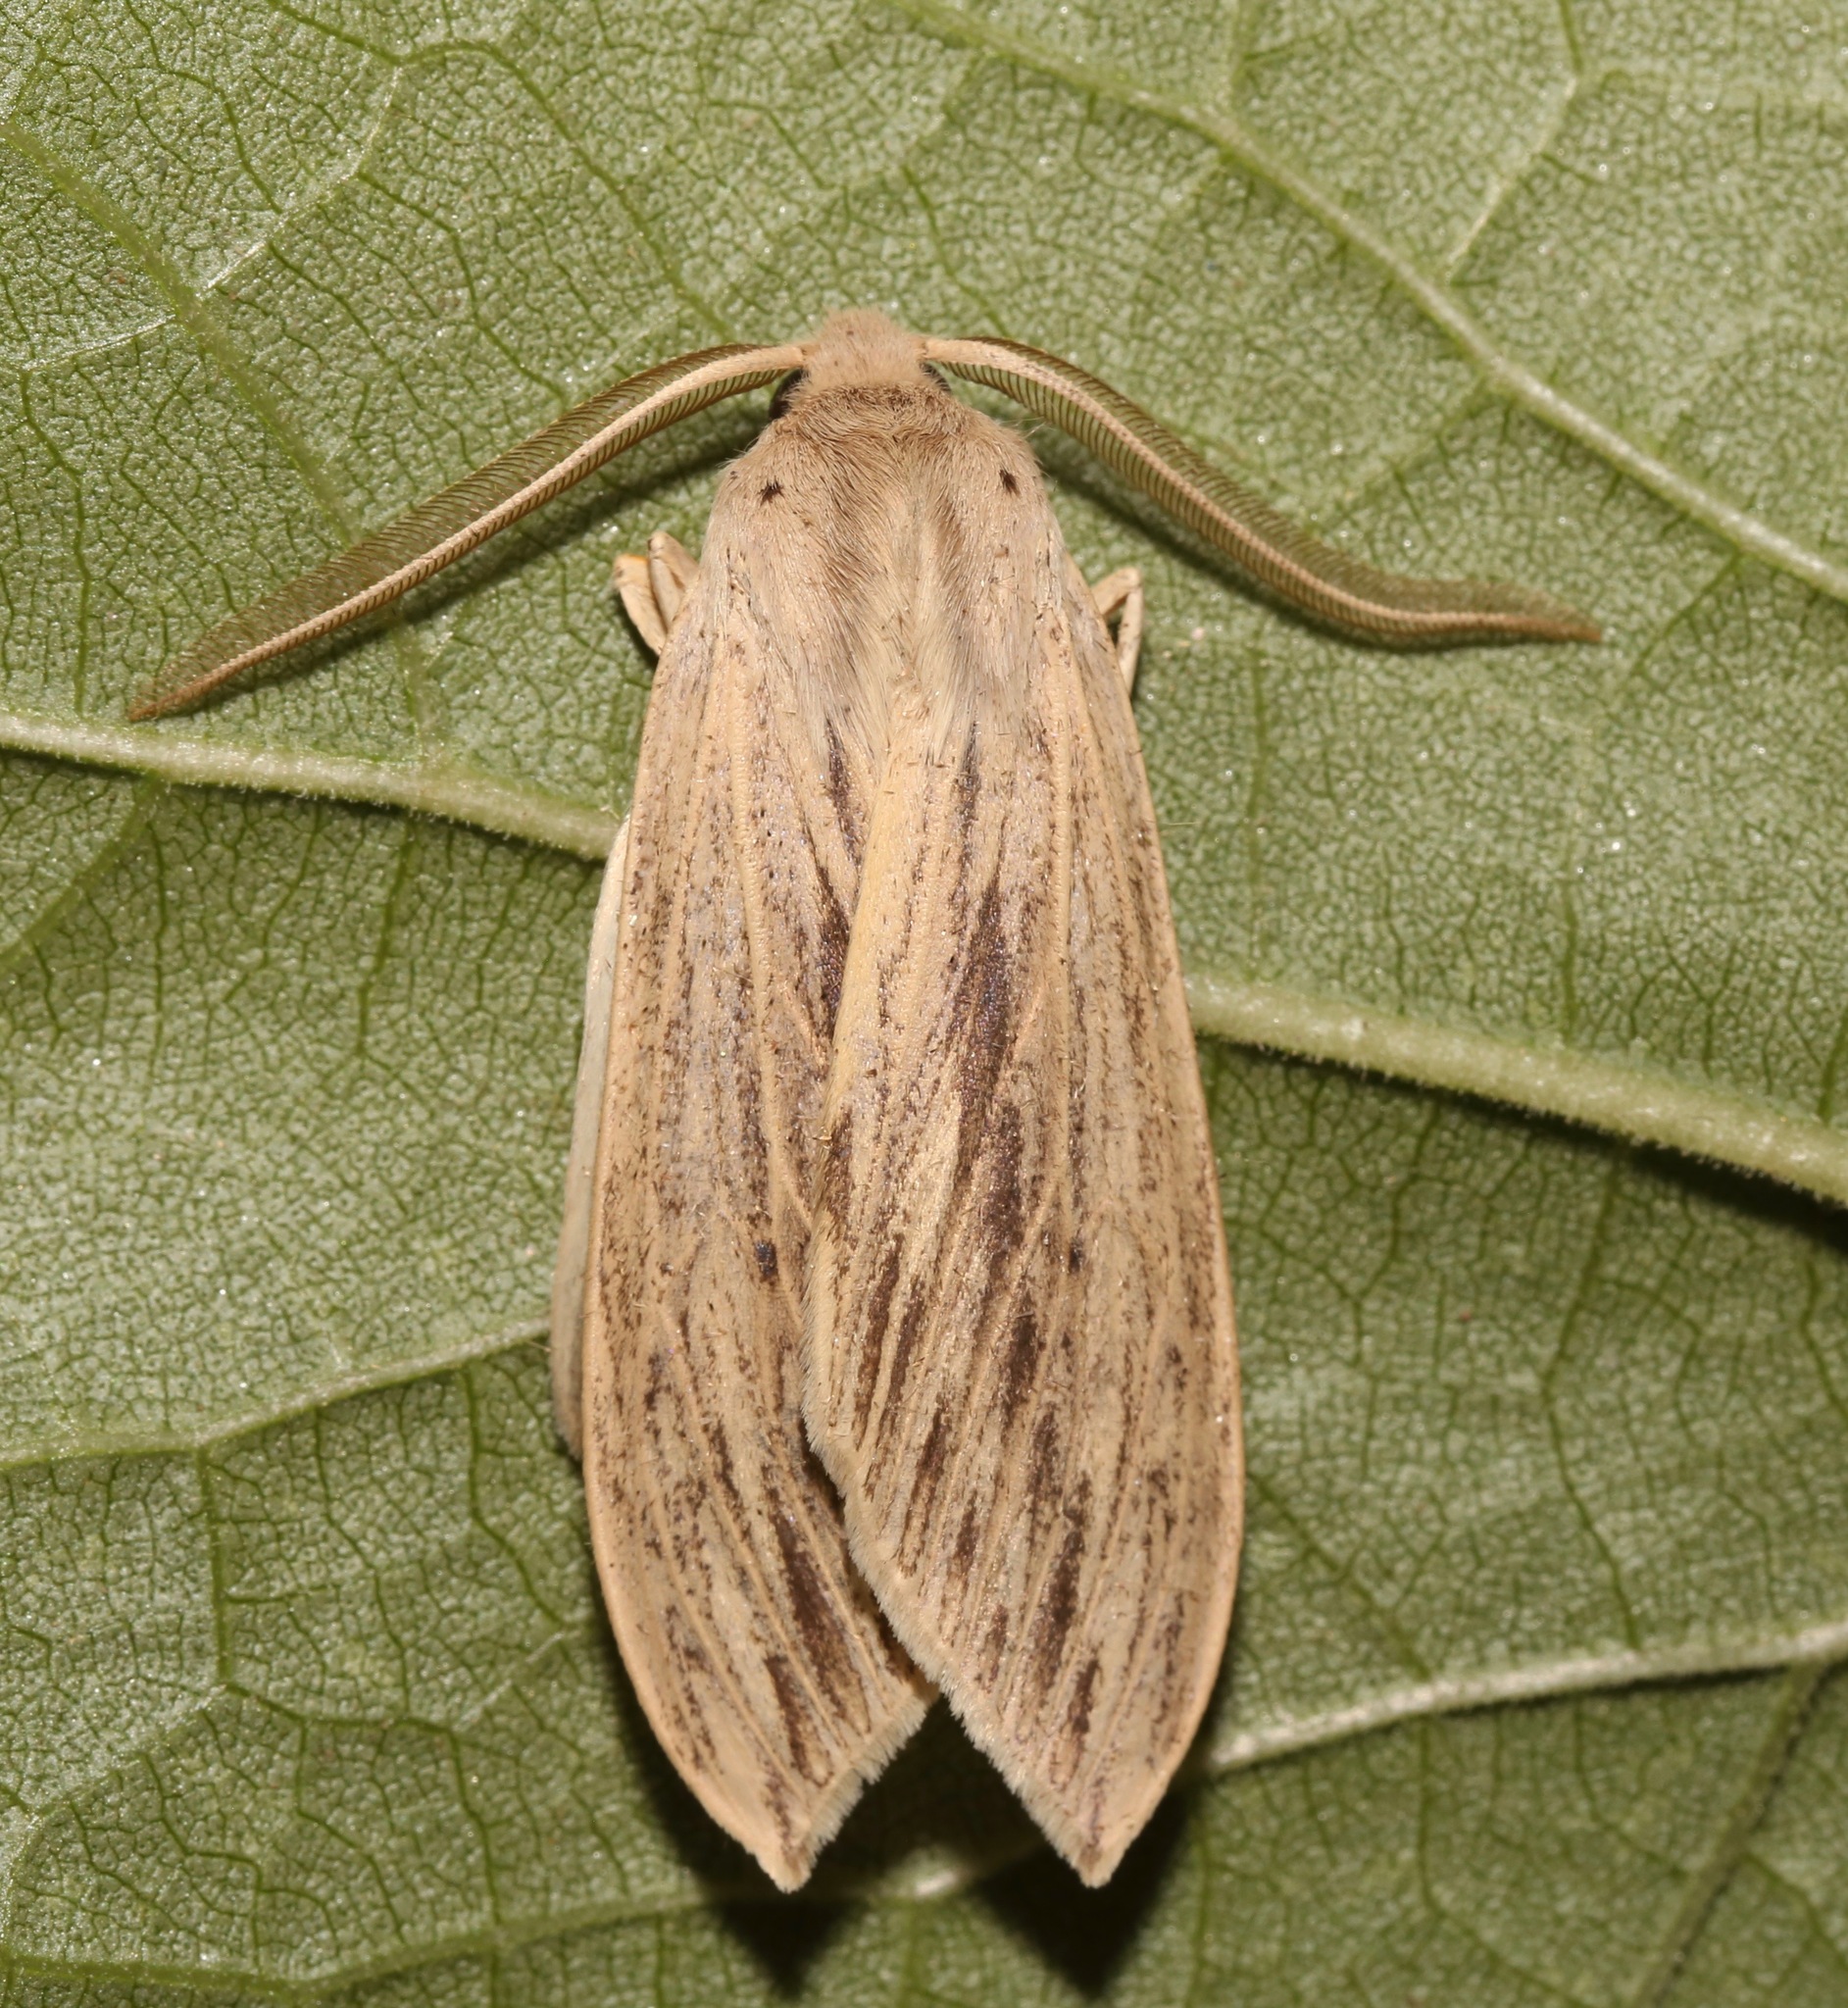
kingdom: Animalia
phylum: Arthropoda
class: Insecta
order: Lepidoptera
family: Erebidae
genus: Leucanopsis
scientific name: Leucanopsis lurida
